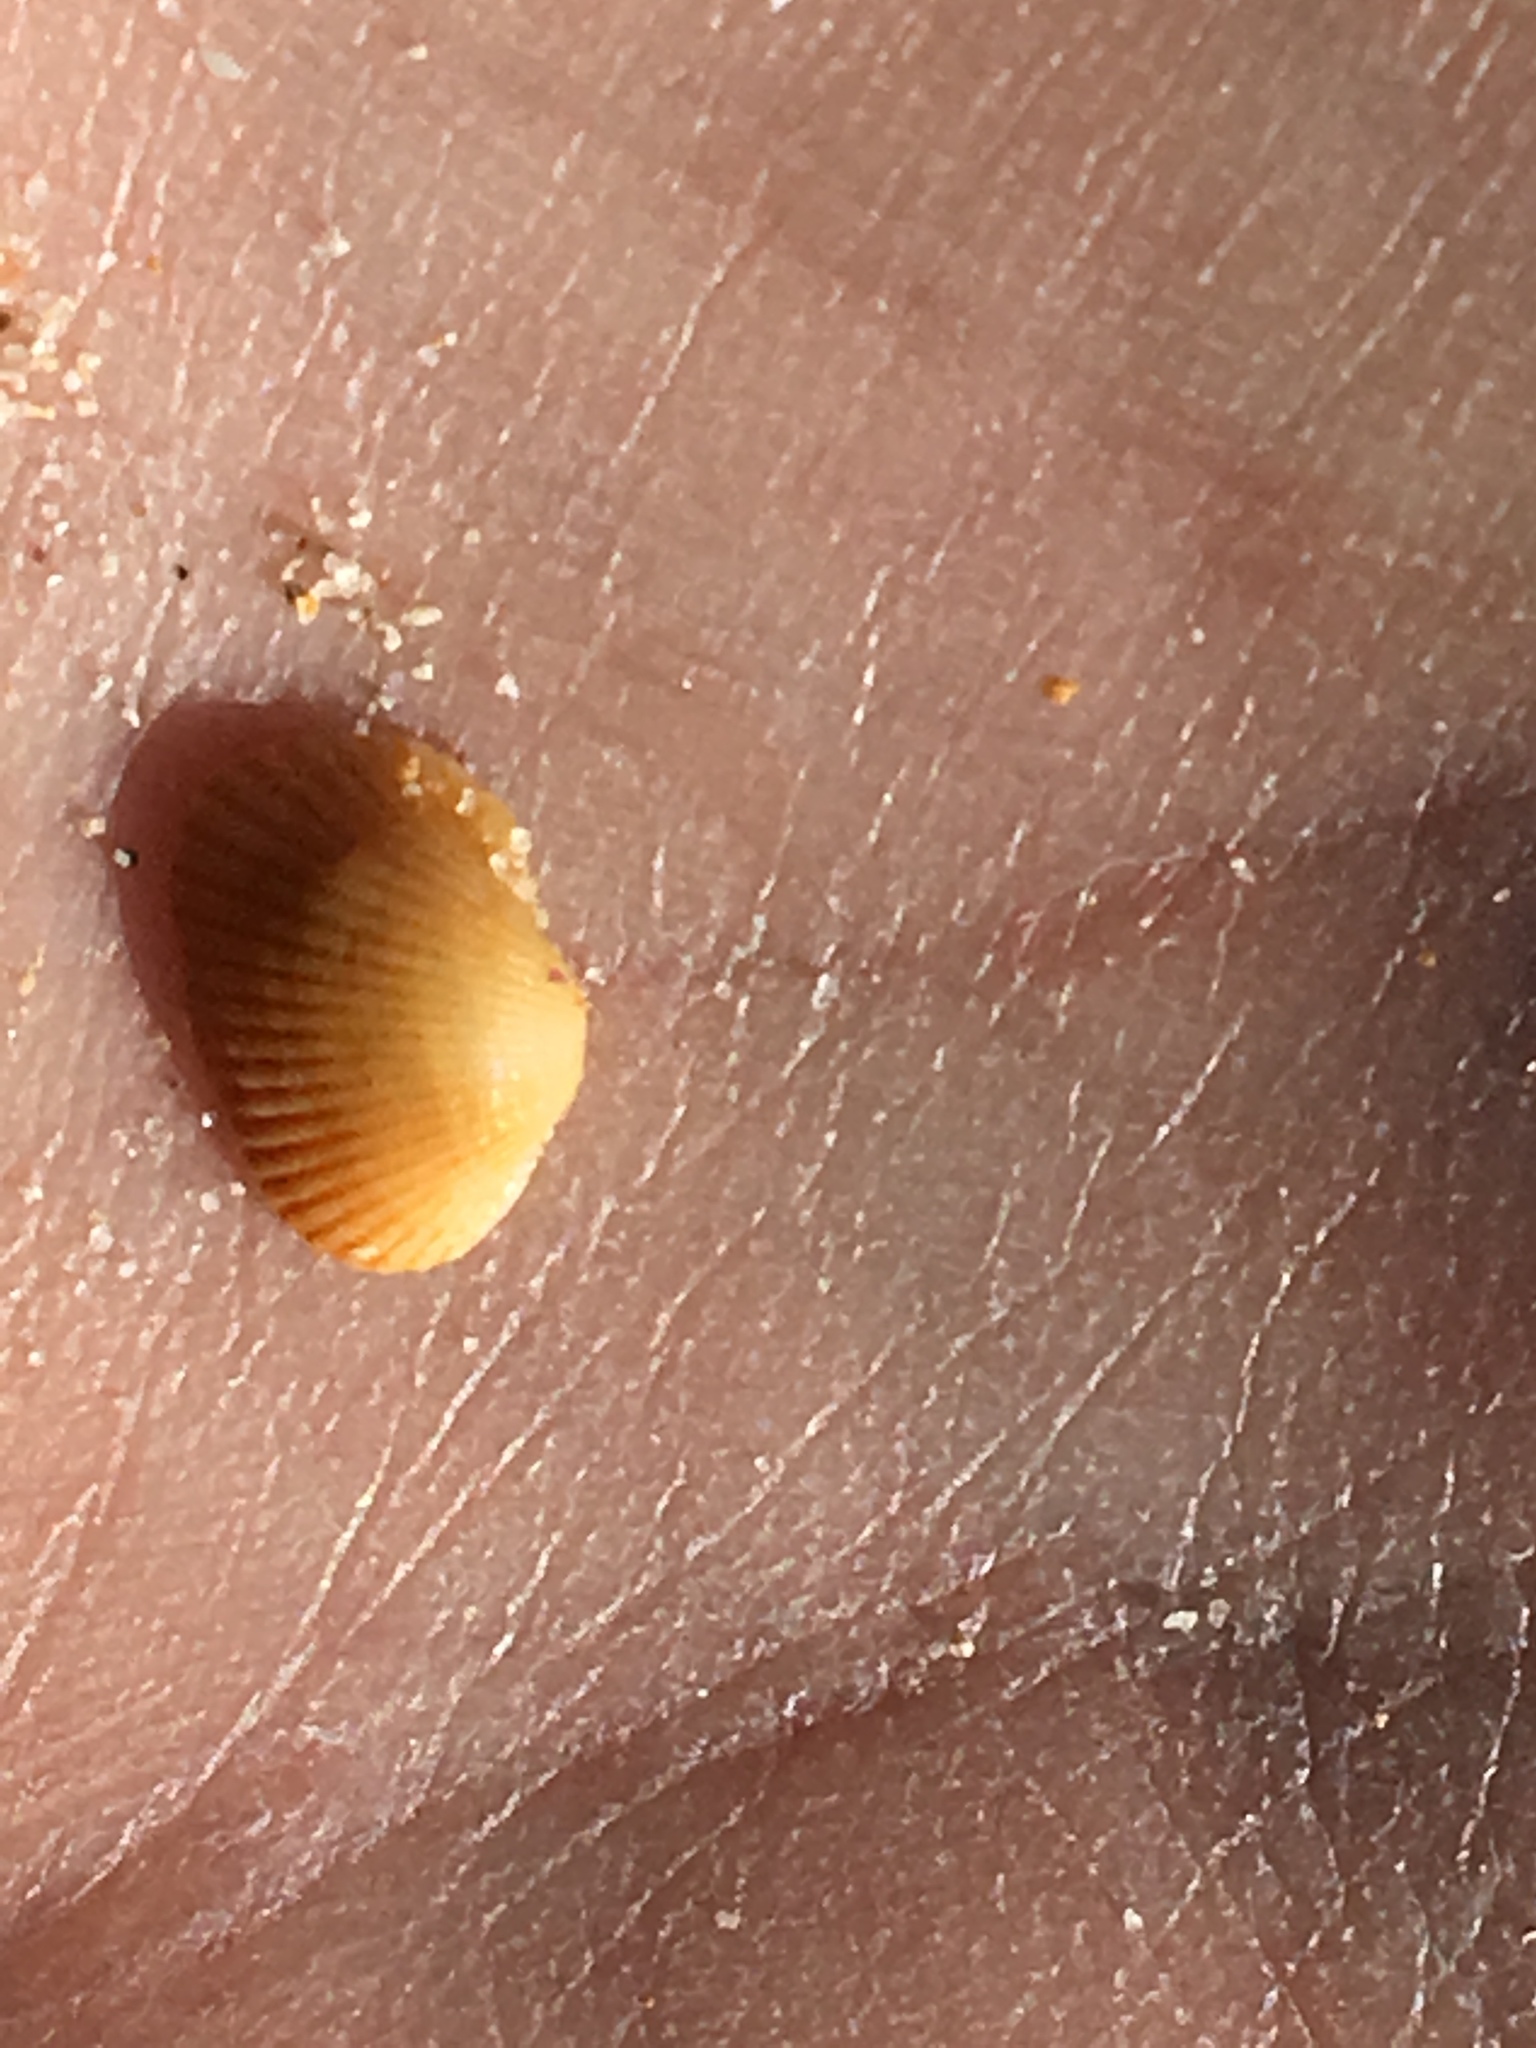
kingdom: Animalia
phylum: Mollusca
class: Bivalvia
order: Arcida
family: Arcidae
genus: Anadara
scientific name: Anadara trapezia
